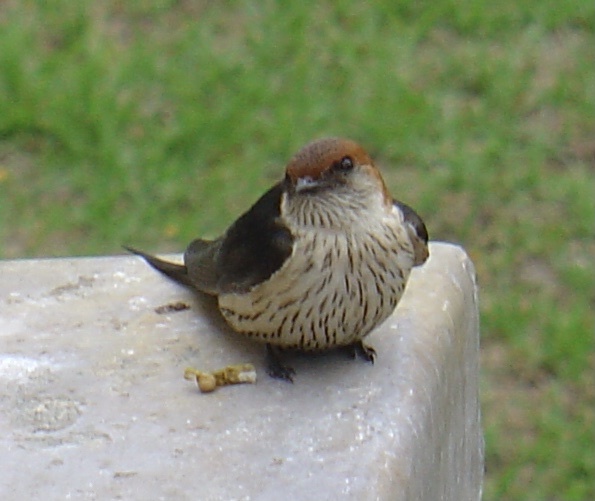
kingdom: Animalia
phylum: Chordata
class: Aves
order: Passeriformes
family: Hirundinidae
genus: Cecropis
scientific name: Cecropis cucullata
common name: Greater striped-swallow
